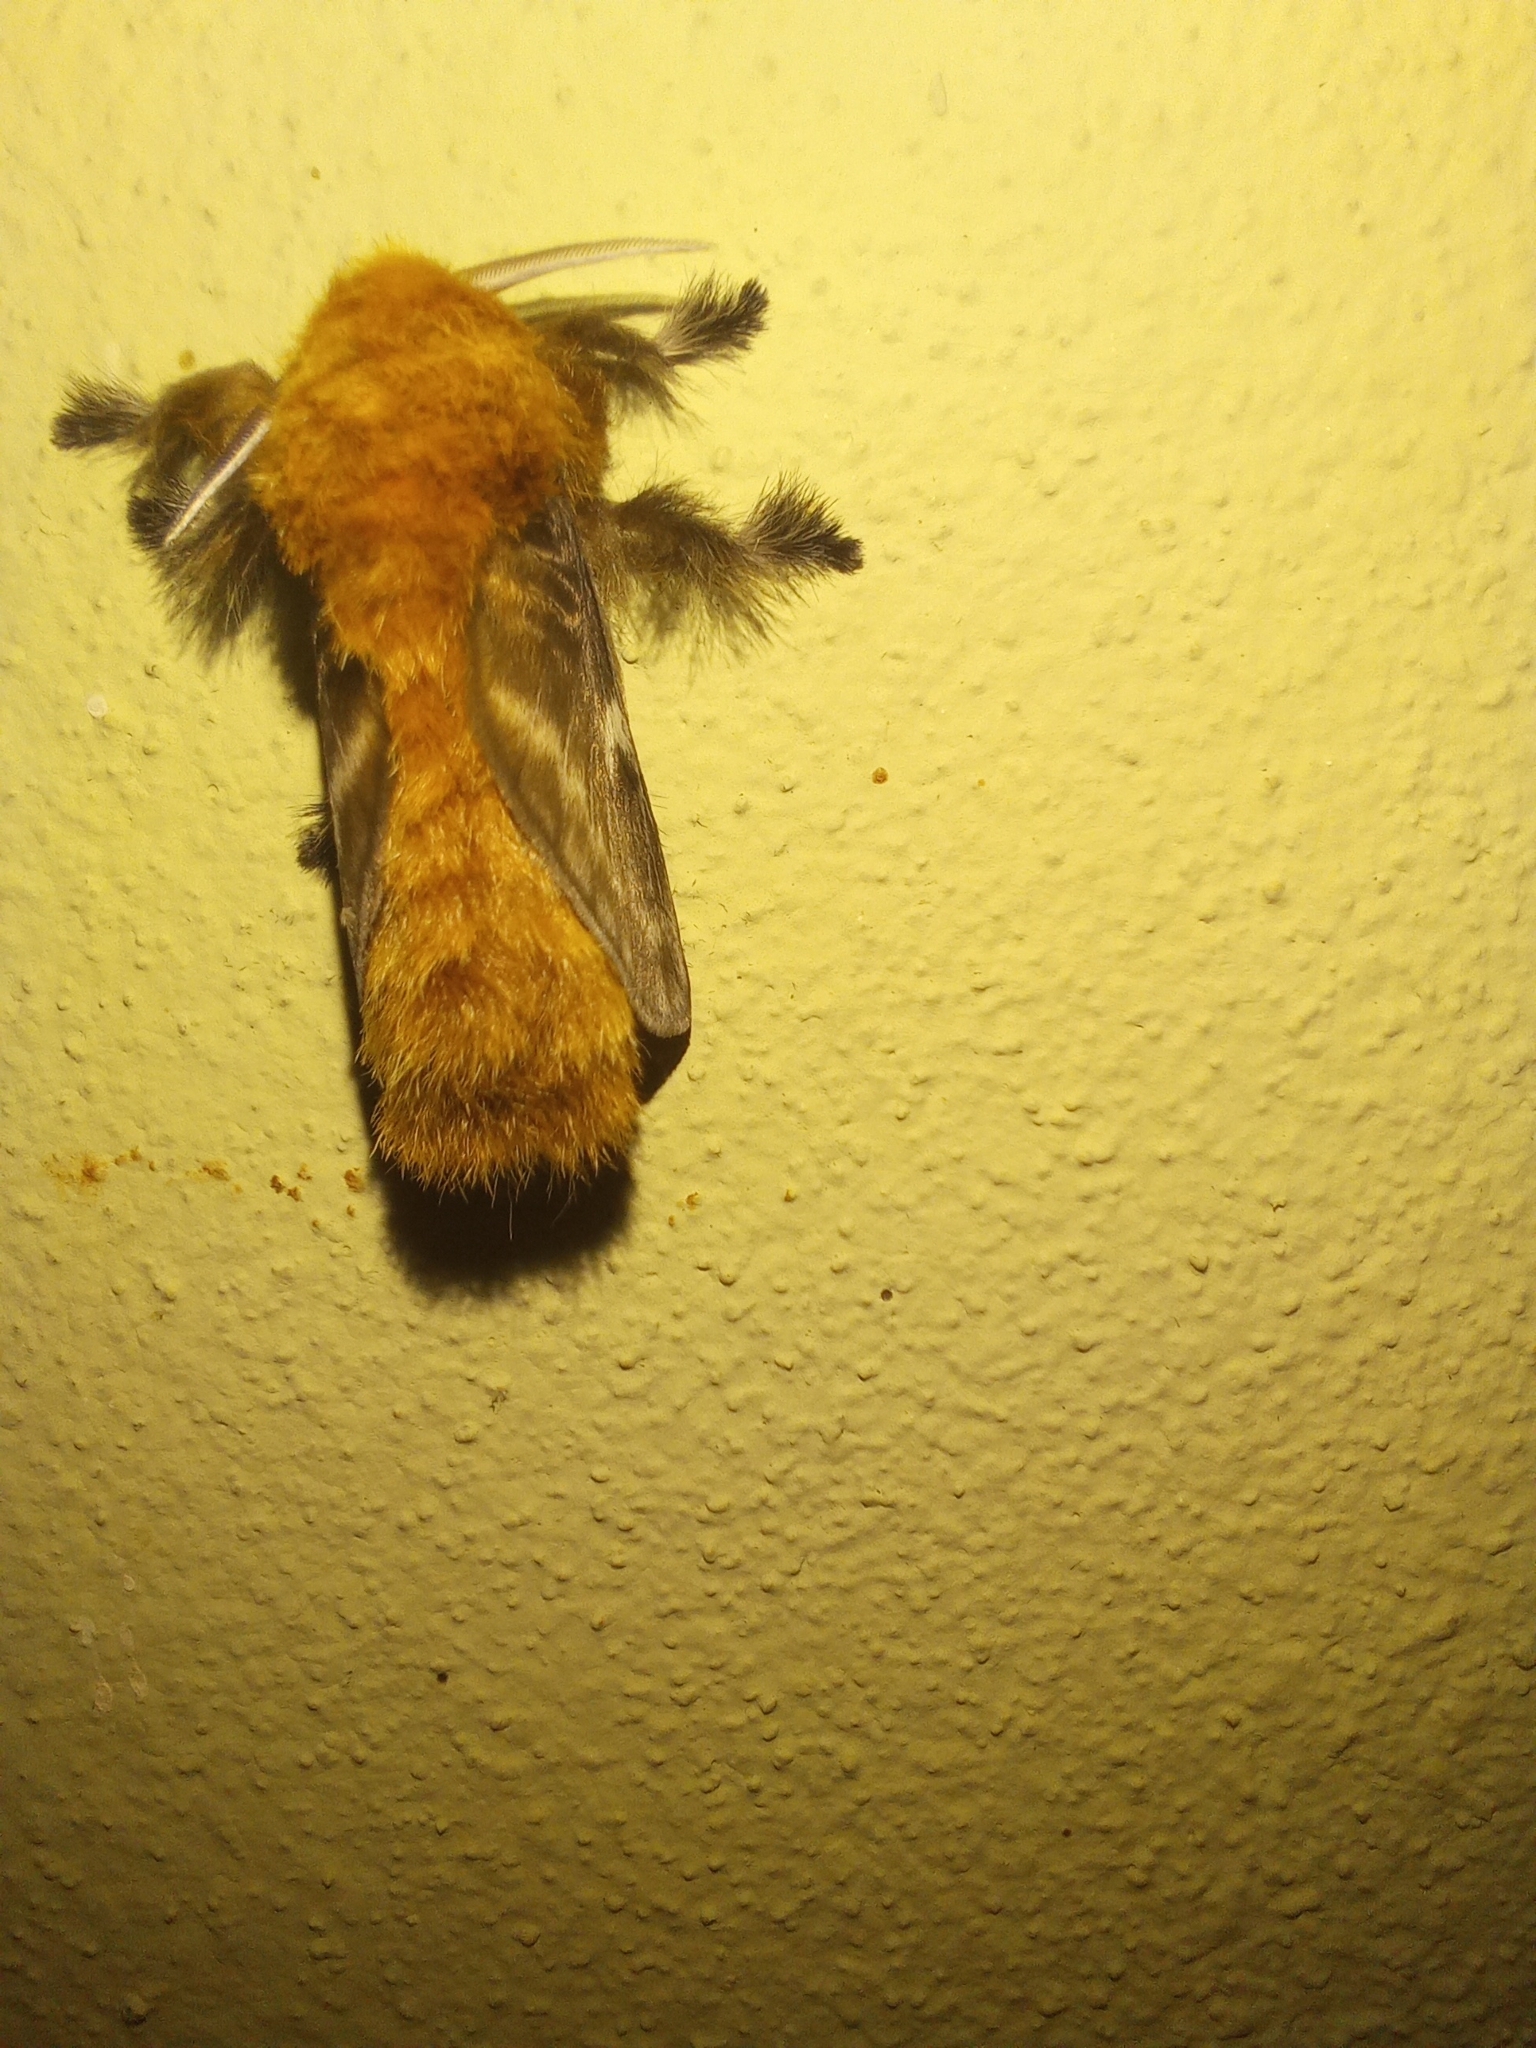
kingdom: Animalia
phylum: Arthropoda
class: Insecta
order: Lepidoptera
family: Megalopygidae
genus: Megalopyge
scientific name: Megalopyge undulata
